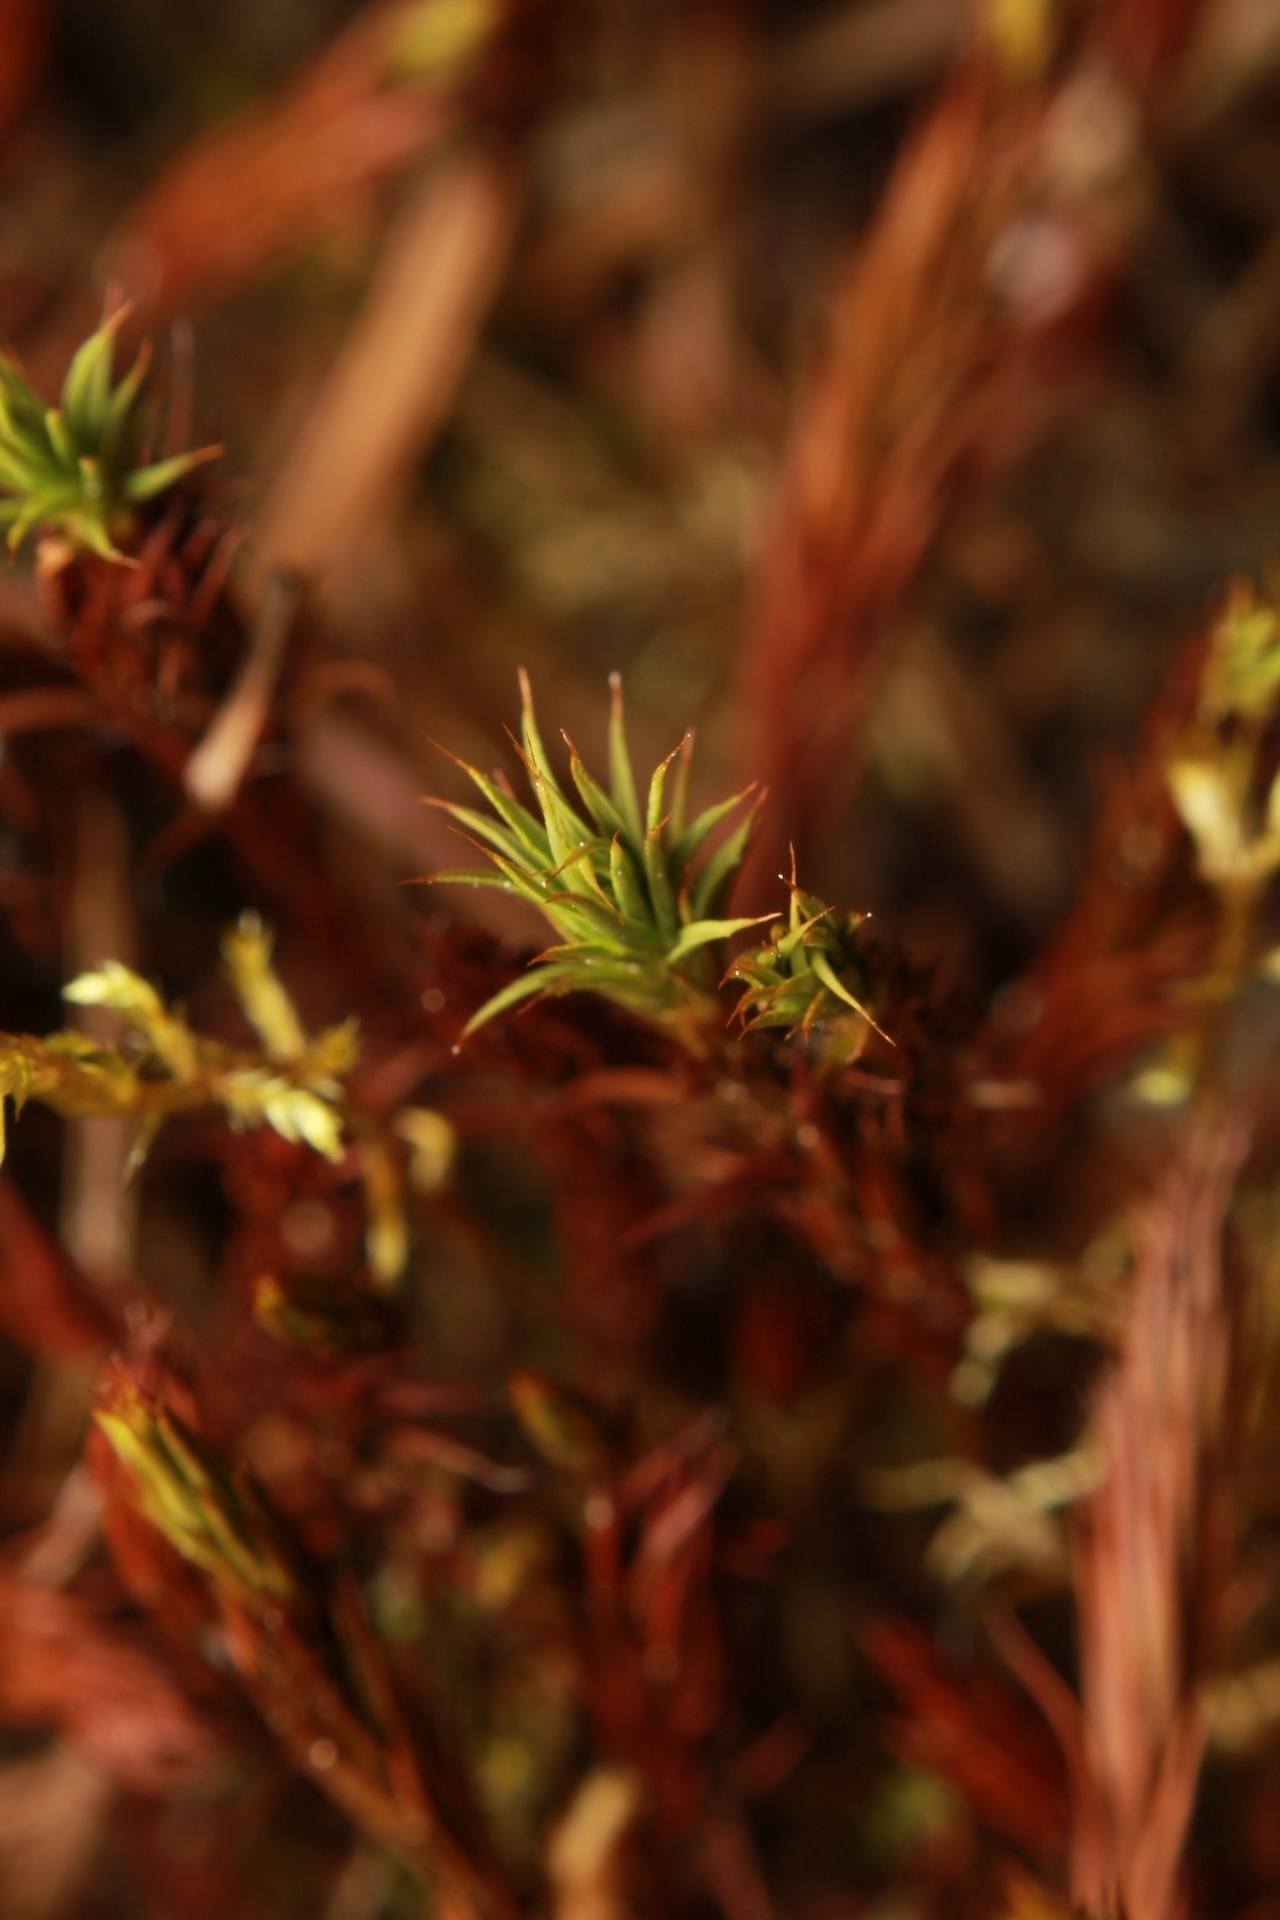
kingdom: Plantae
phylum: Bryophyta
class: Polytrichopsida
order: Polytrichales
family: Polytrichaceae
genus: Polytrichum
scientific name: Polytrichum juniperinum
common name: Juniper haircap moss
